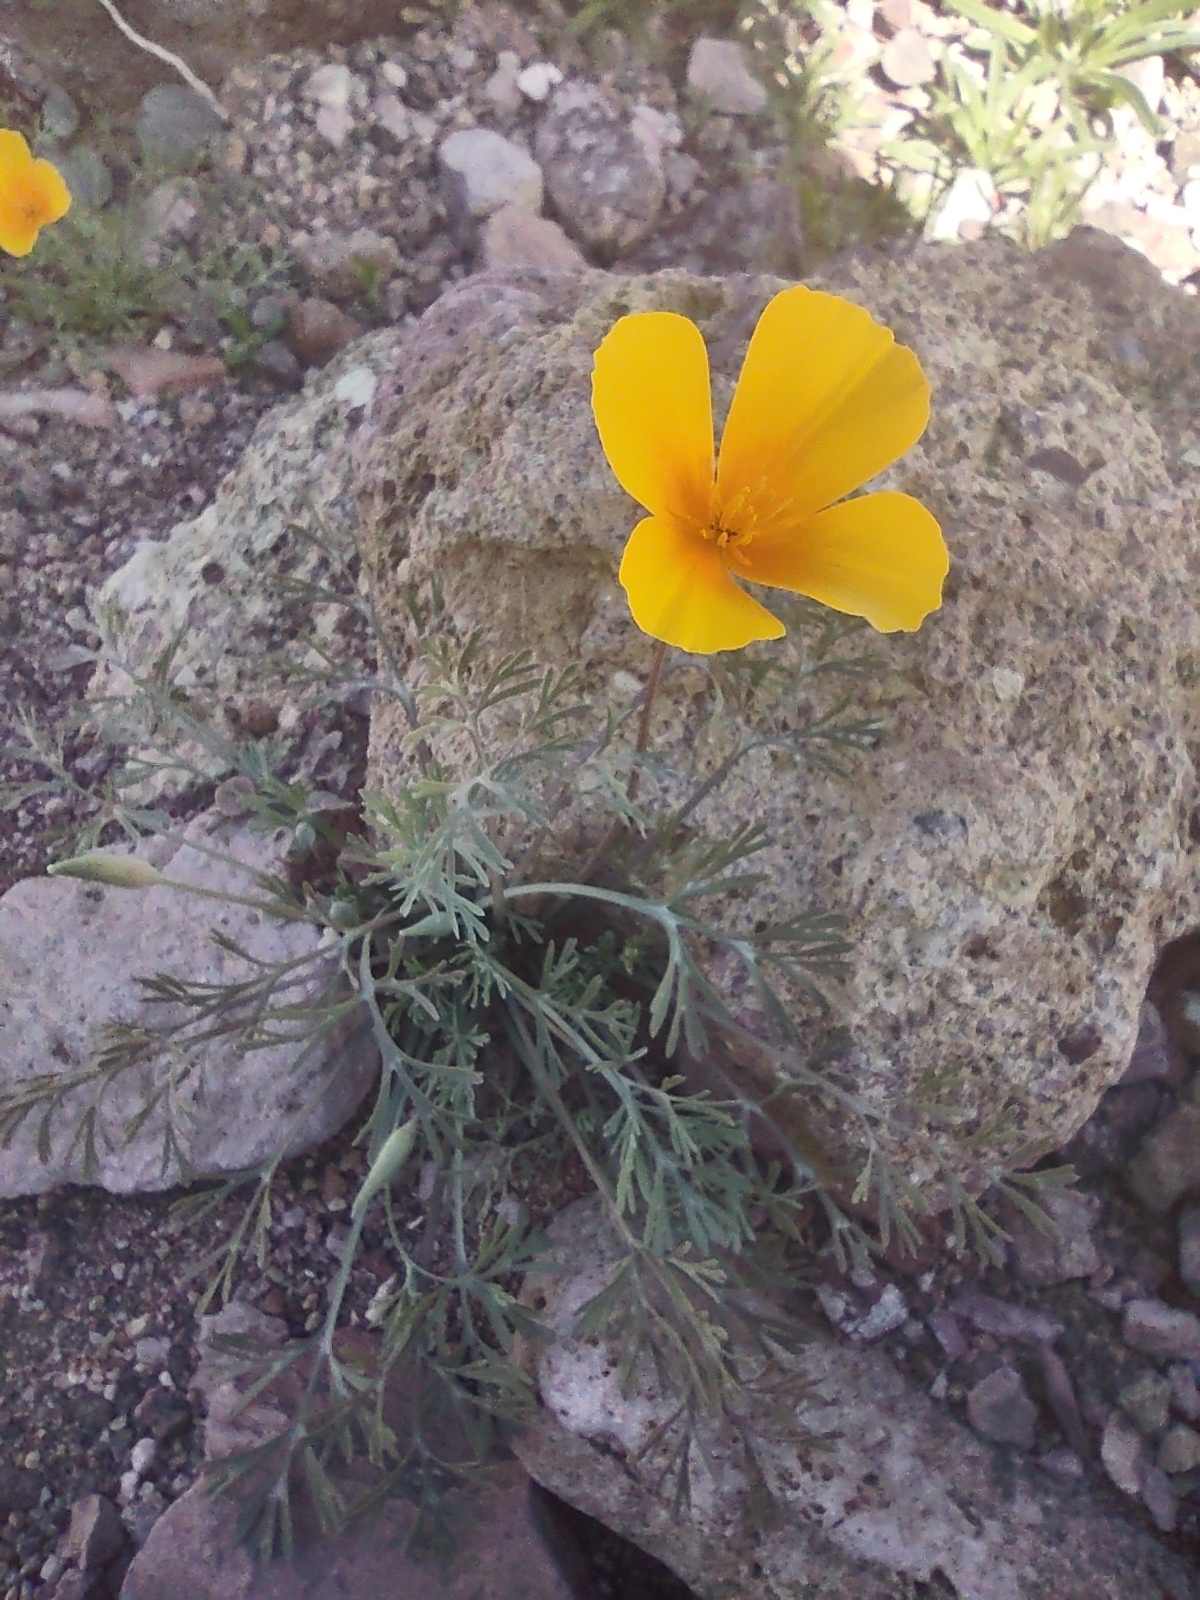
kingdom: Plantae
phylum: Tracheophyta
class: Magnoliopsida
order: Ranunculales
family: Papaveraceae
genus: Eschscholzia
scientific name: Eschscholzia californica
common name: California poppy
